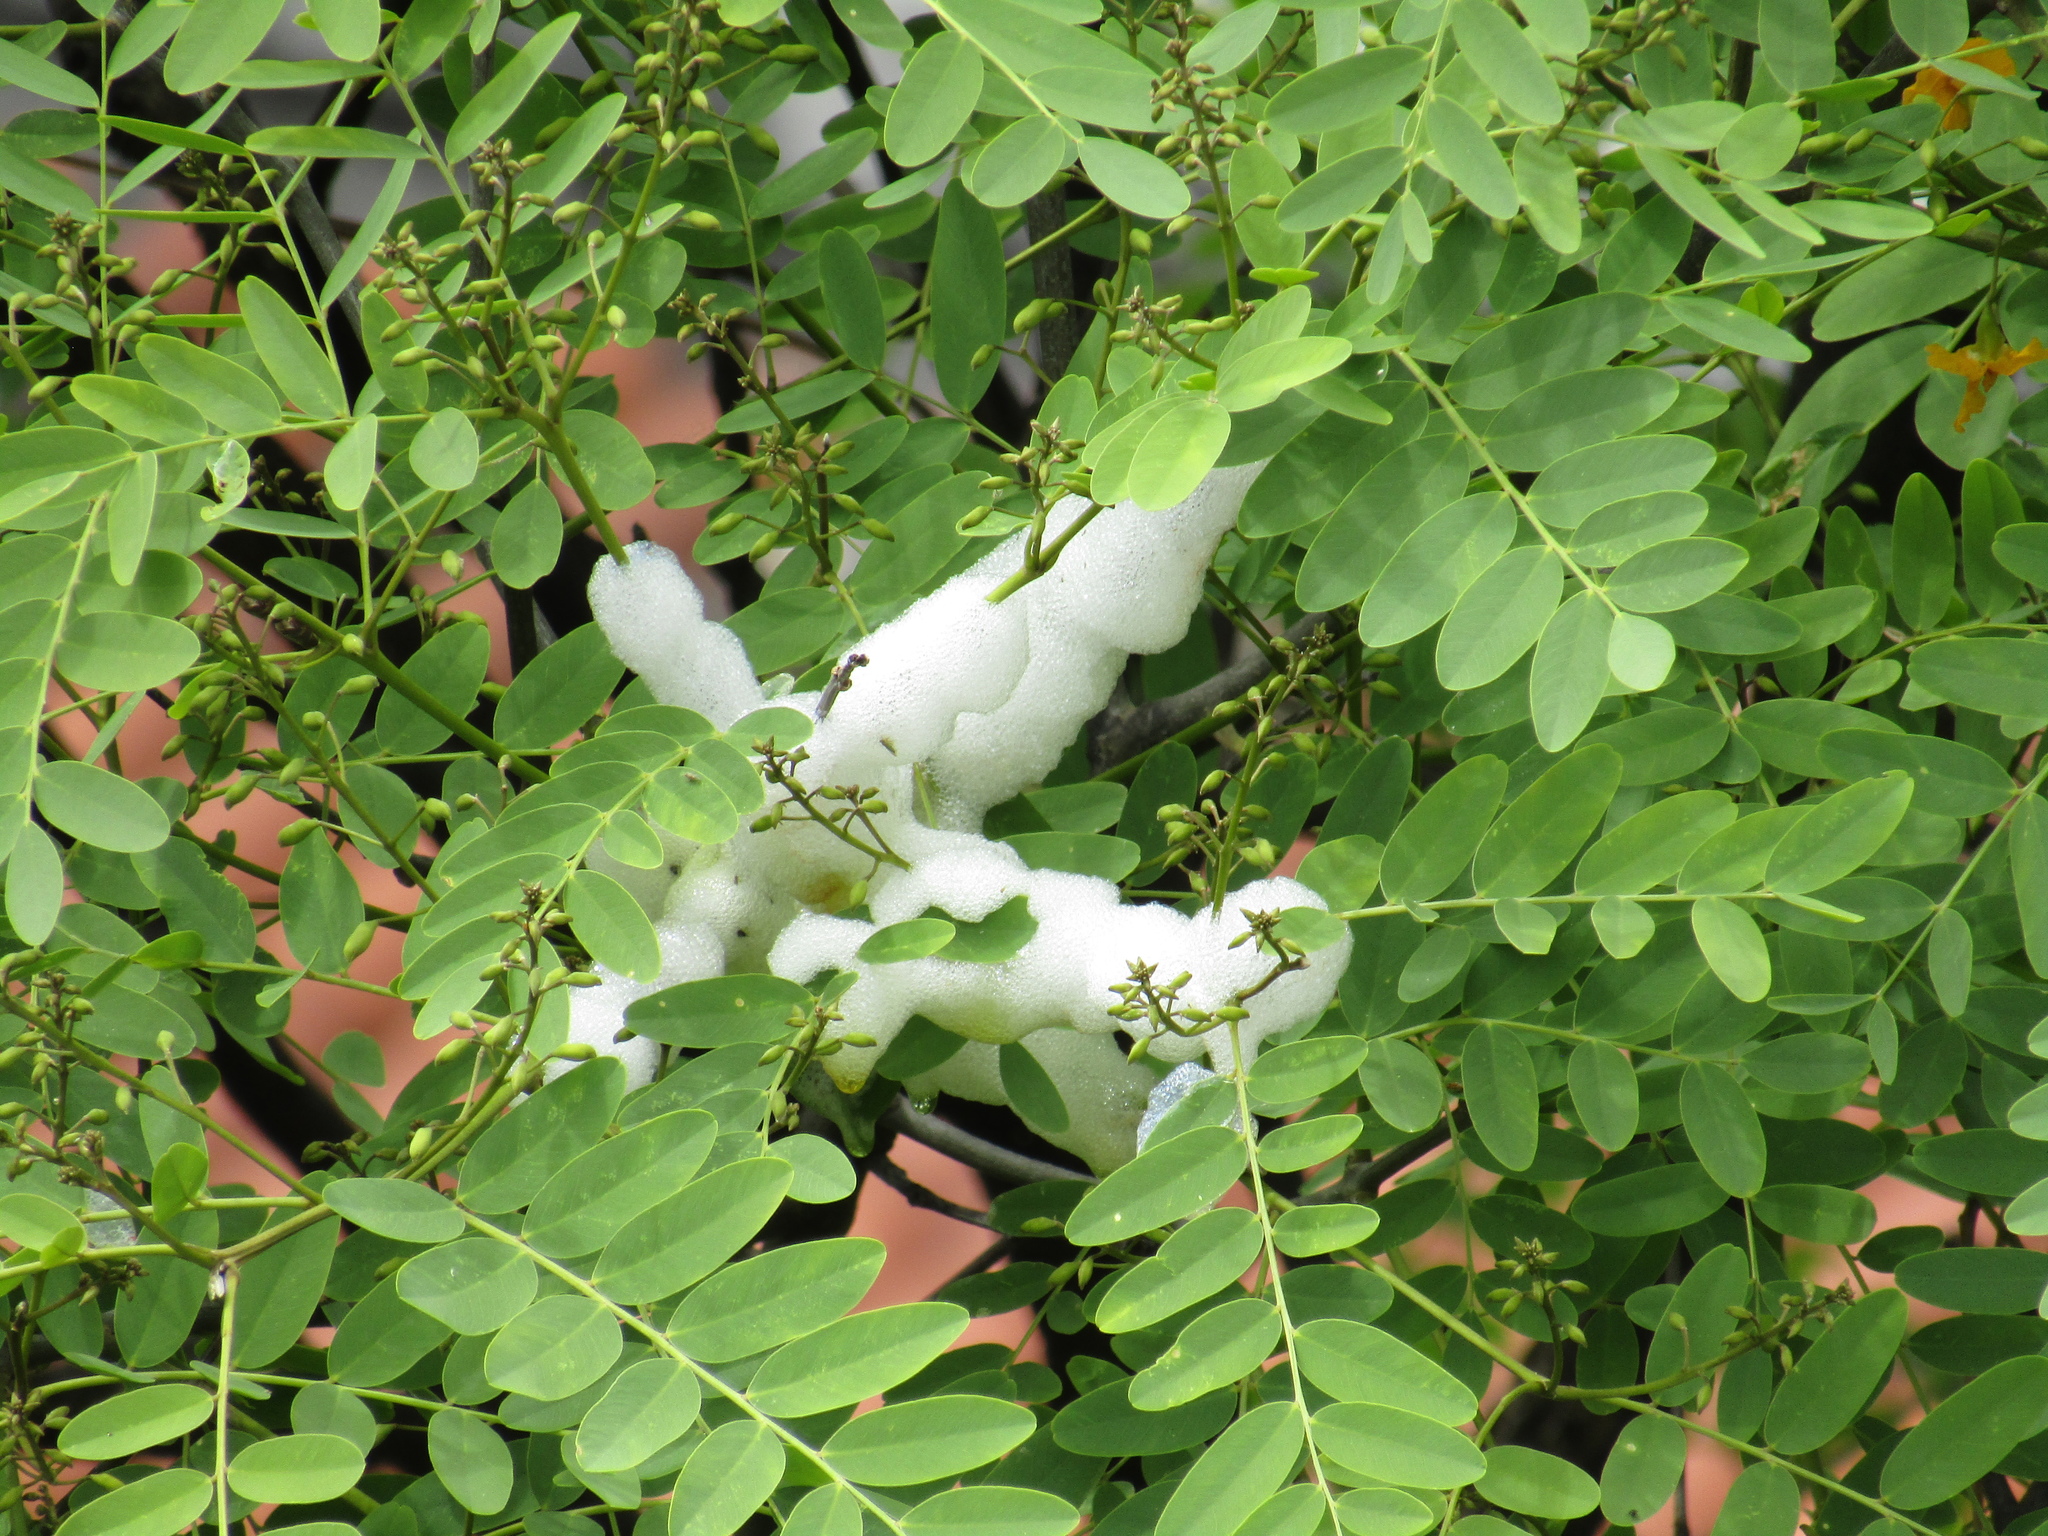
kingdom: Animalia
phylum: Arthropoda
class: Insecta
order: Hemiptera
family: Aphrophoridae
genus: Cephisus
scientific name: Cephisus siccifolius
